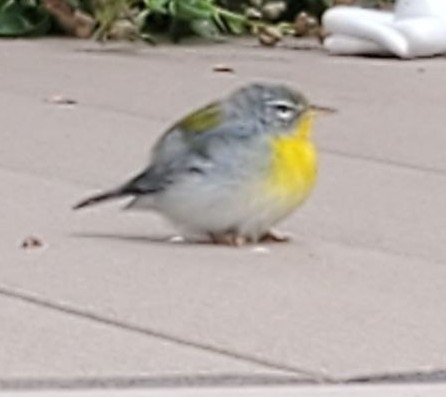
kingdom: Animalia
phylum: Chordata
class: Aves
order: Passeriformes
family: Parulidae
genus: Setophaga
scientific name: Setophaga americana
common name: Northern parula
